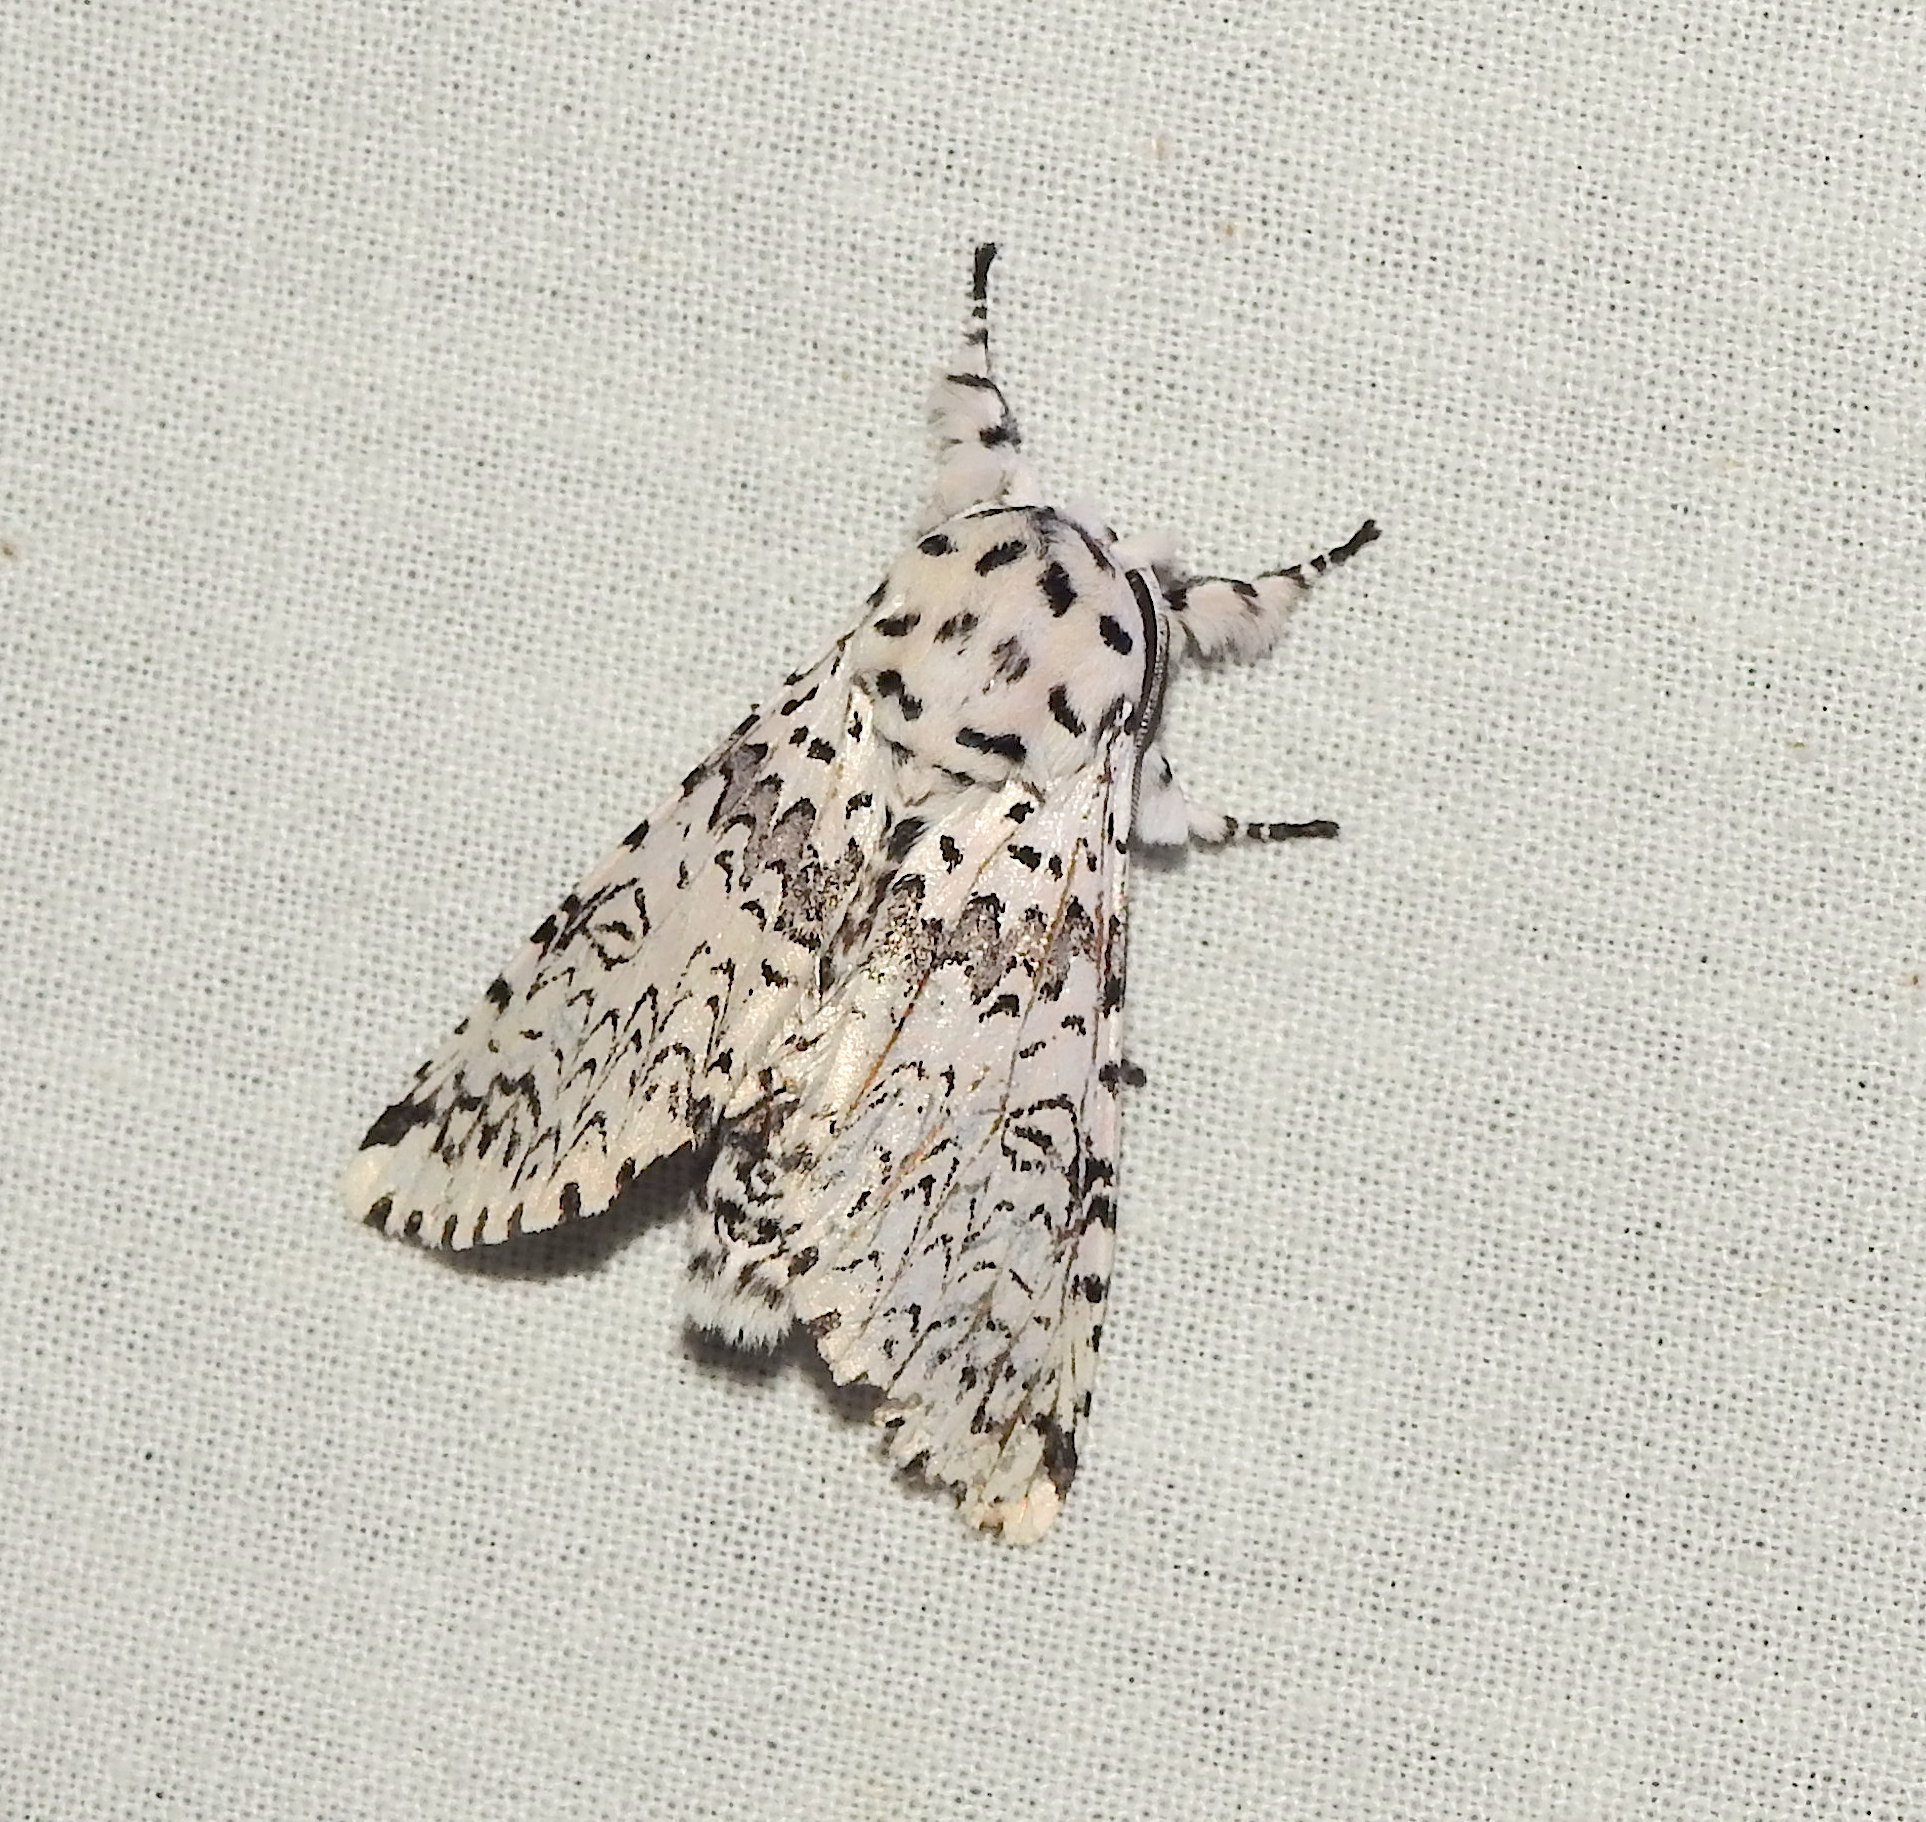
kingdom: Animalia
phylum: Arthropoda
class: Insecta
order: Lepidoptera
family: Notodontidae
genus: Kamalia
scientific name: Kamalia kandyia
